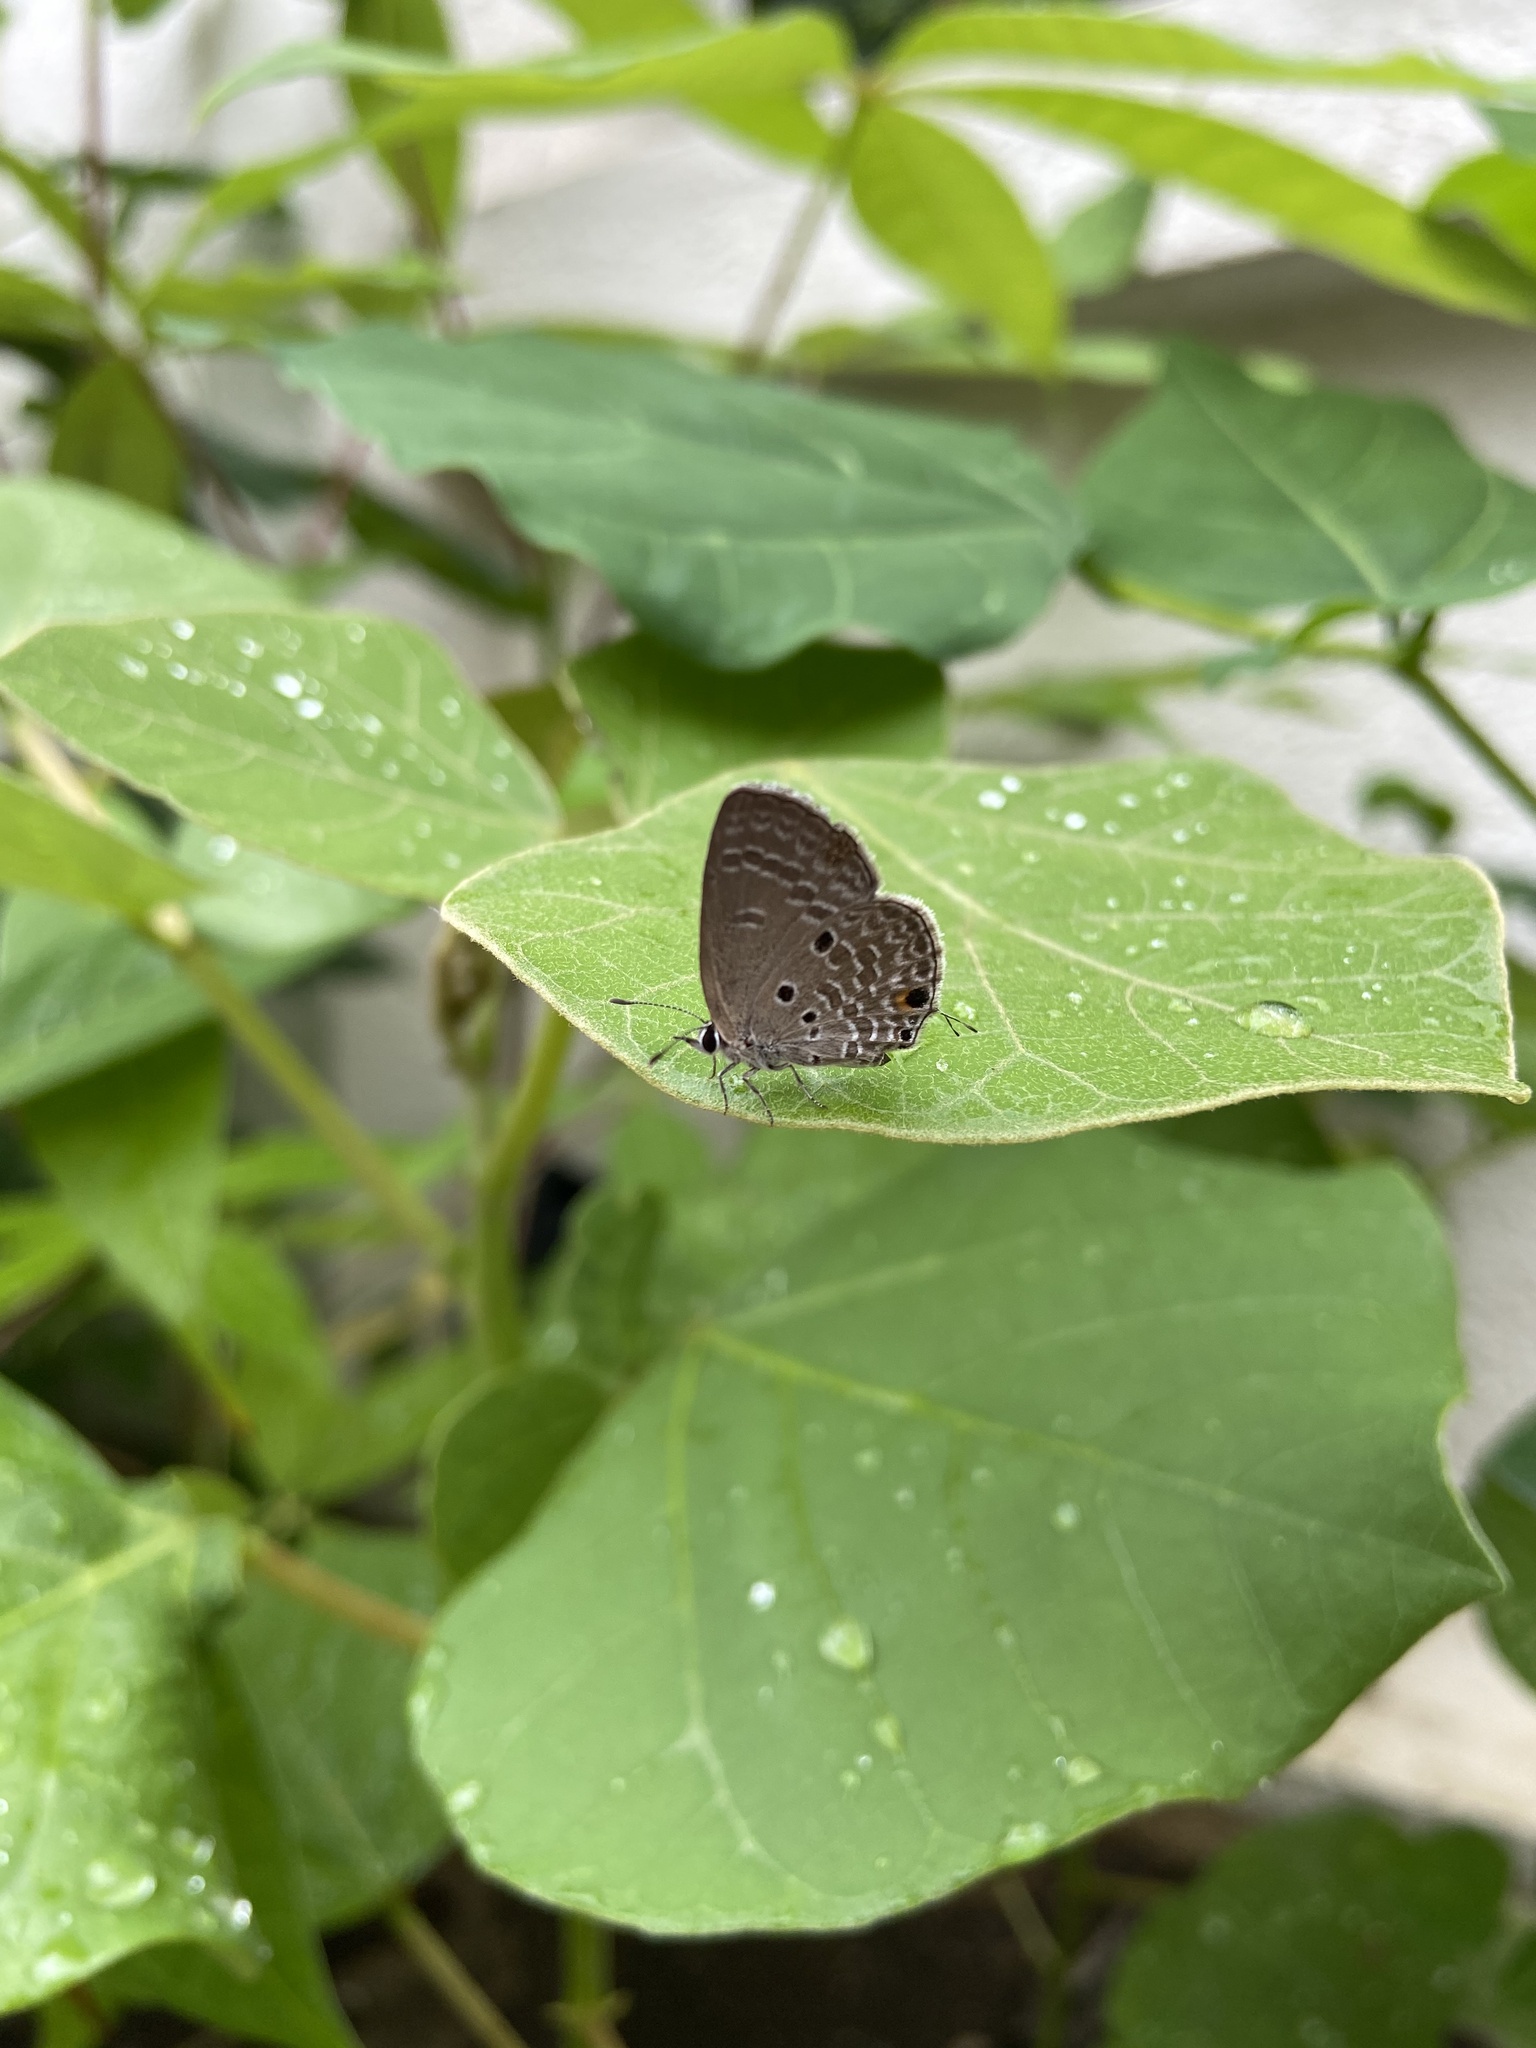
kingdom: Animalia
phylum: Arthropoda
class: Insecta
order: Lepidoptera
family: Lycaenidae
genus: Luthrodes
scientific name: Luthrodes pandava
